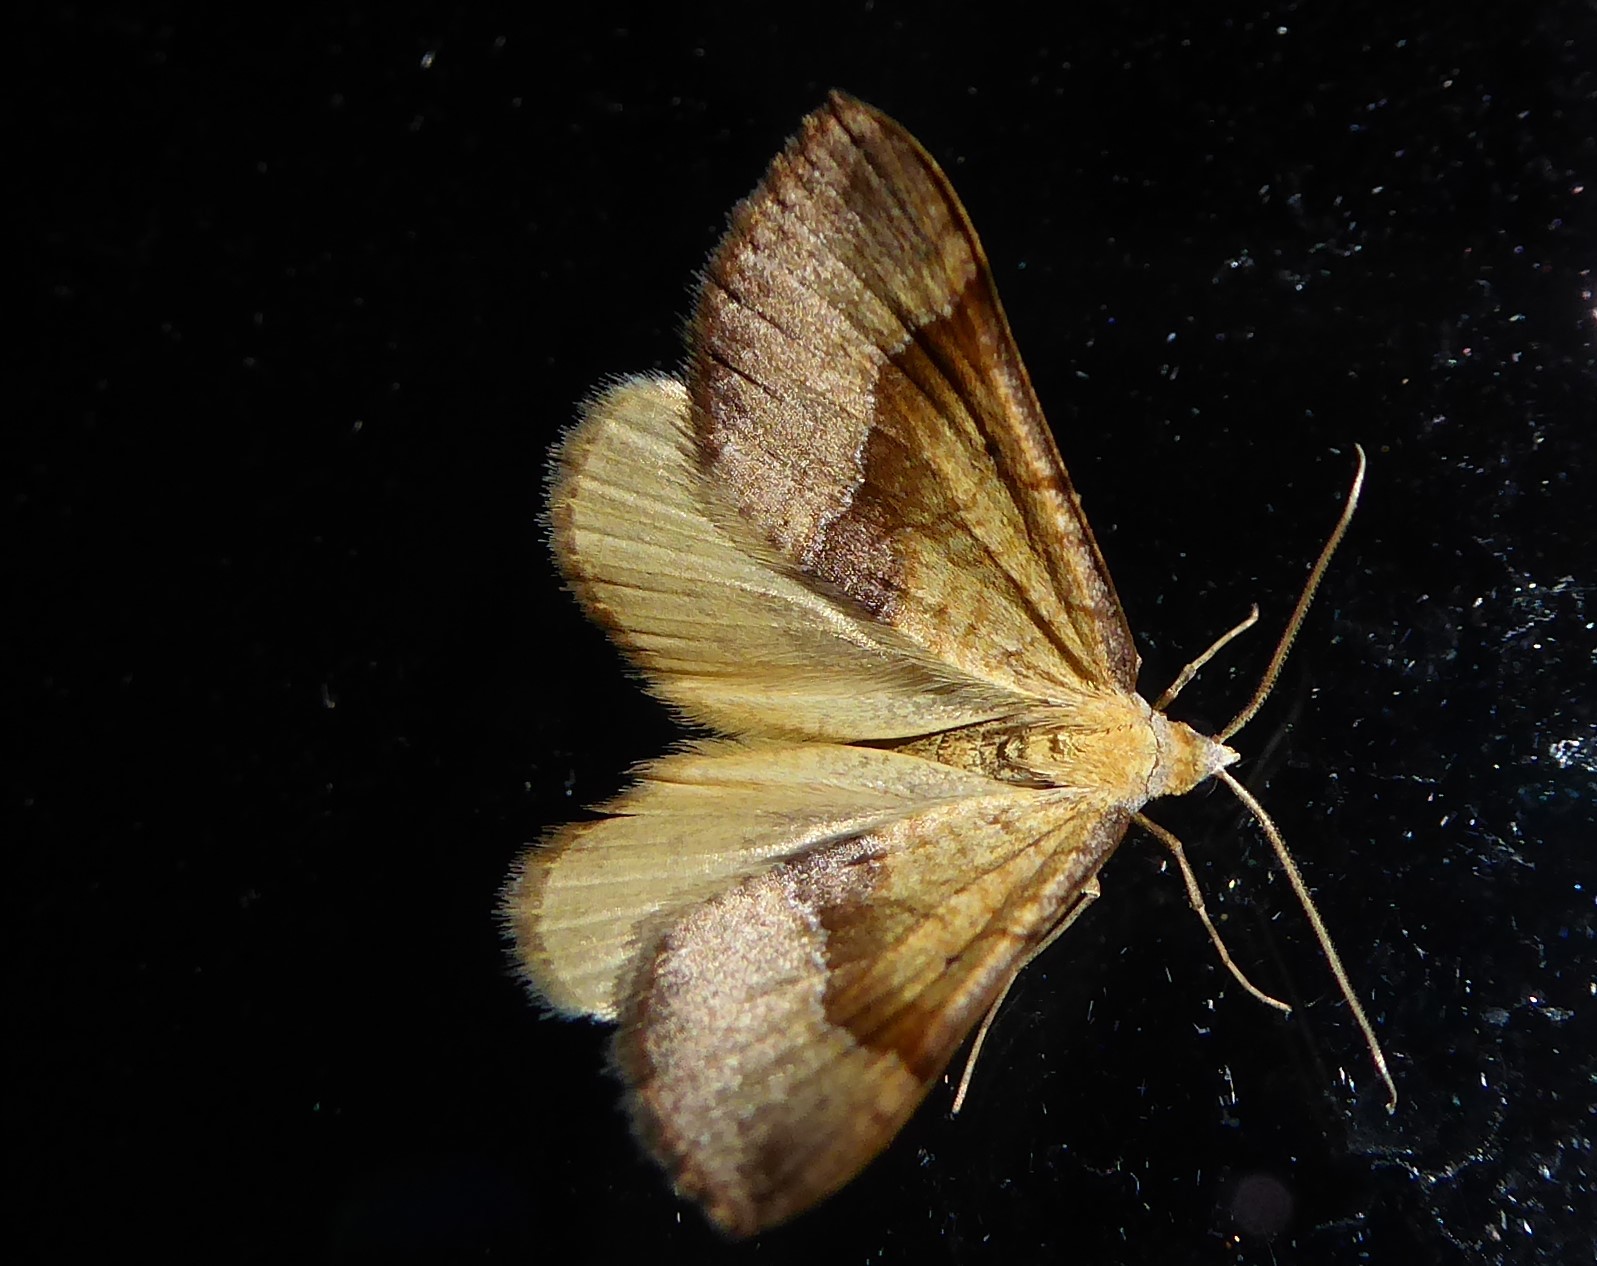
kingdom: Animalia
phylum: Arthropoda
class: Insecta
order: Lepidoptera
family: Geometridae
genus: Anachloris
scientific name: Anachloris subochraria
